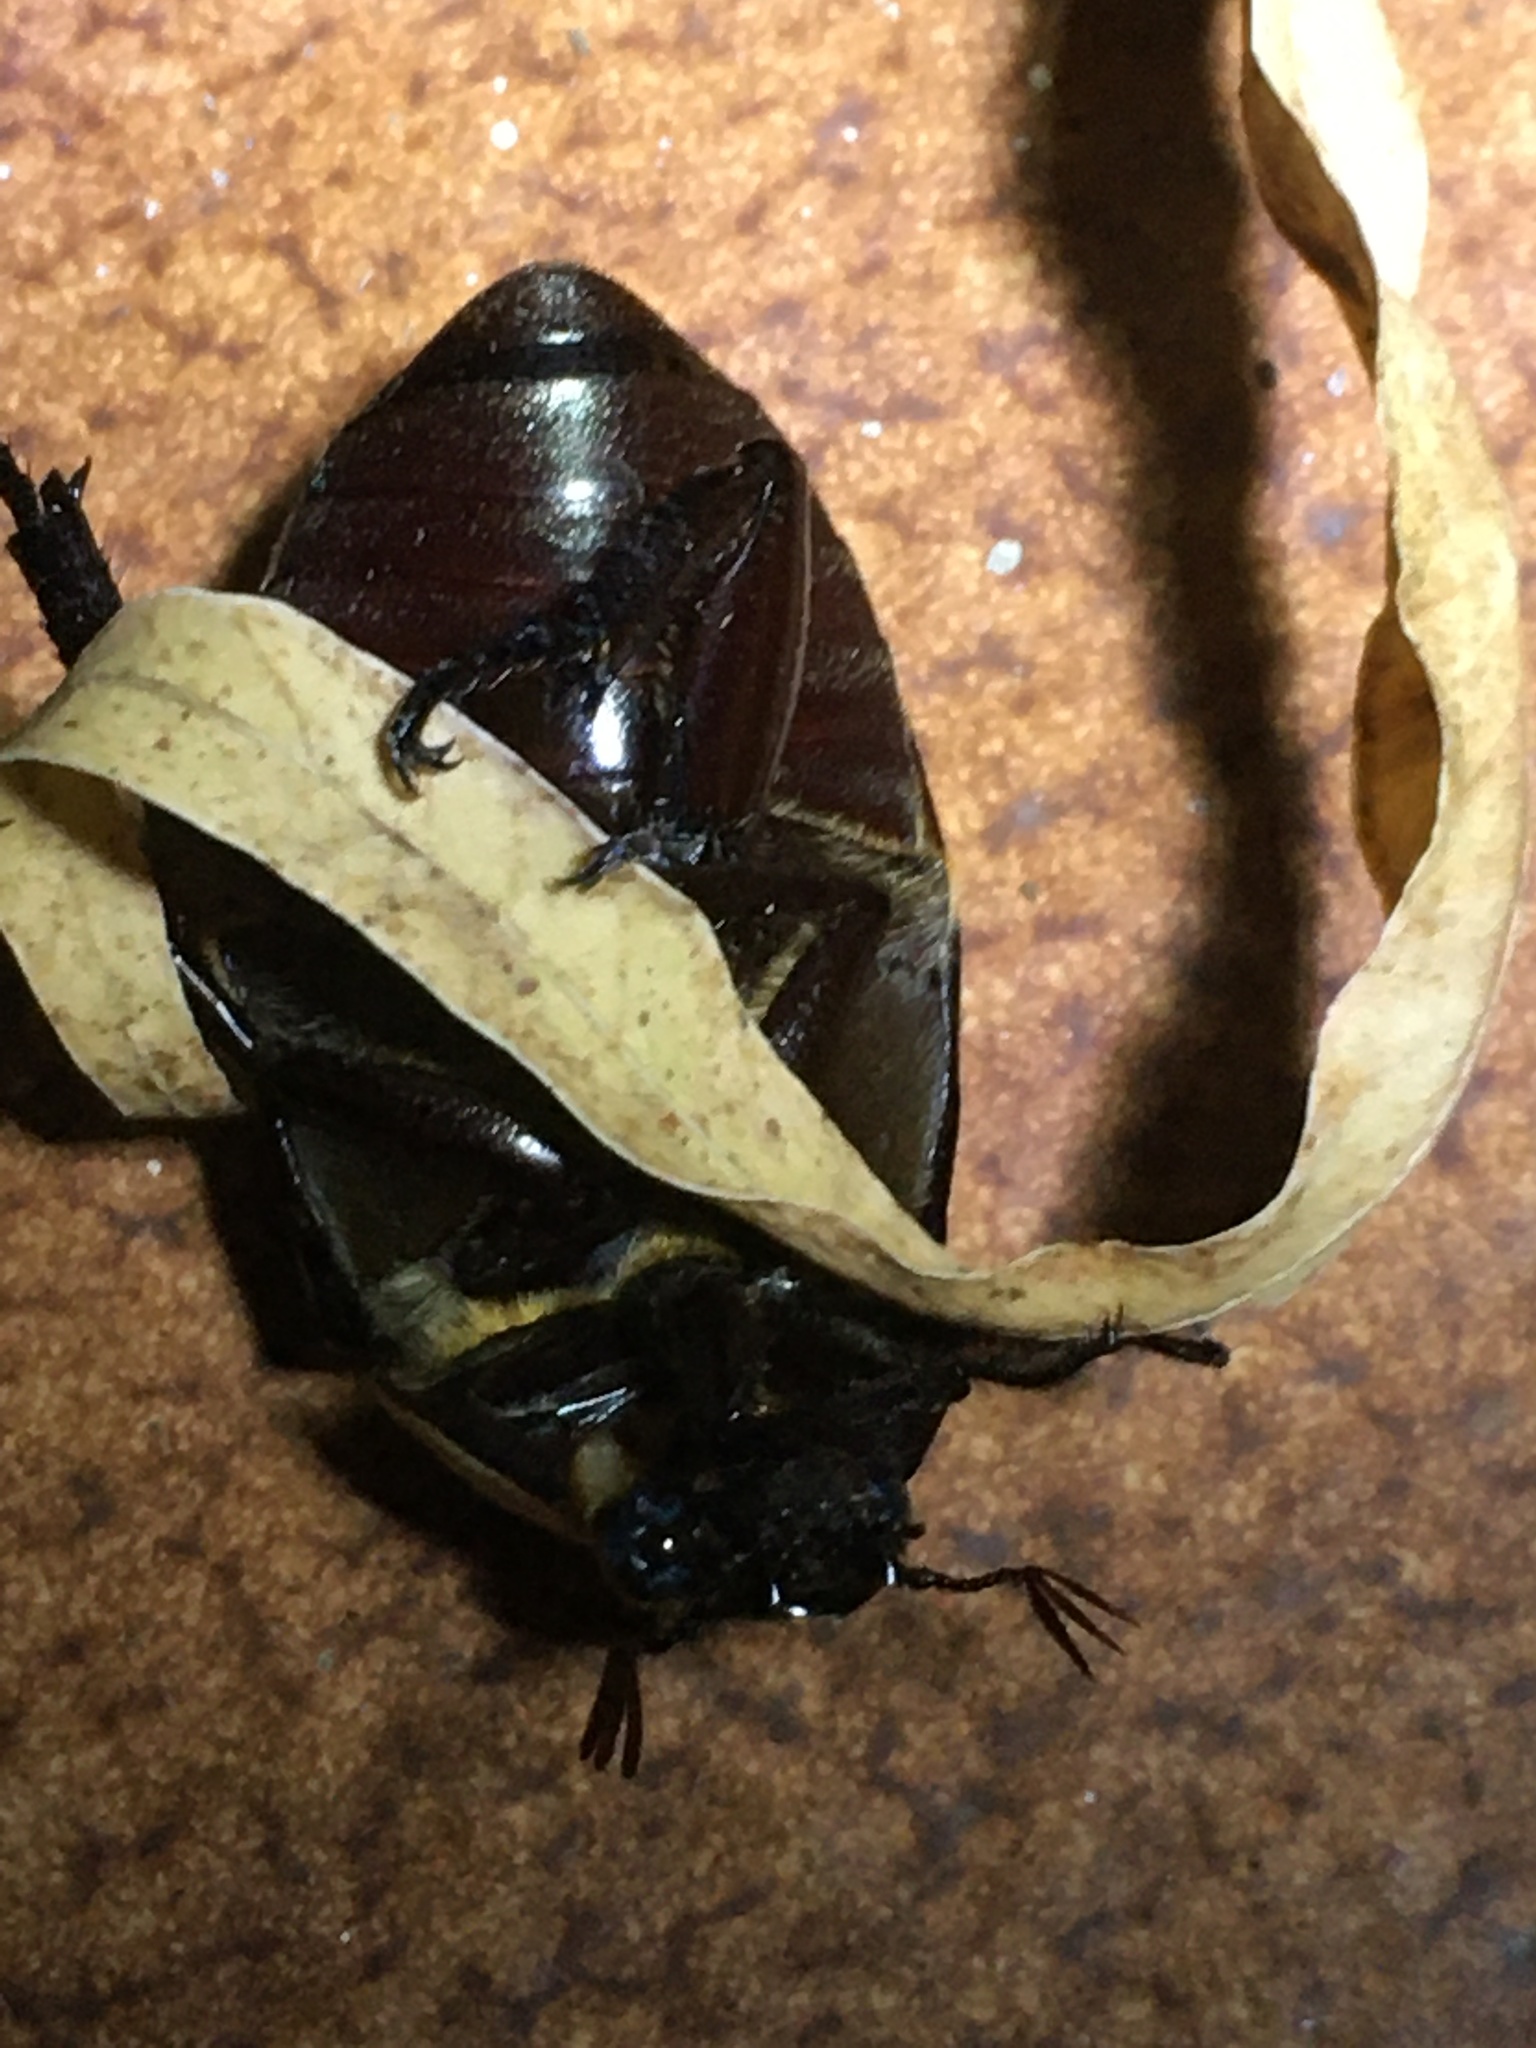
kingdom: Animalia
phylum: Arthropoda
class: Insecta
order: Coleoptera
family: Scarabaeidae
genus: Heterosternus
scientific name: Heterosternus buprestoides
